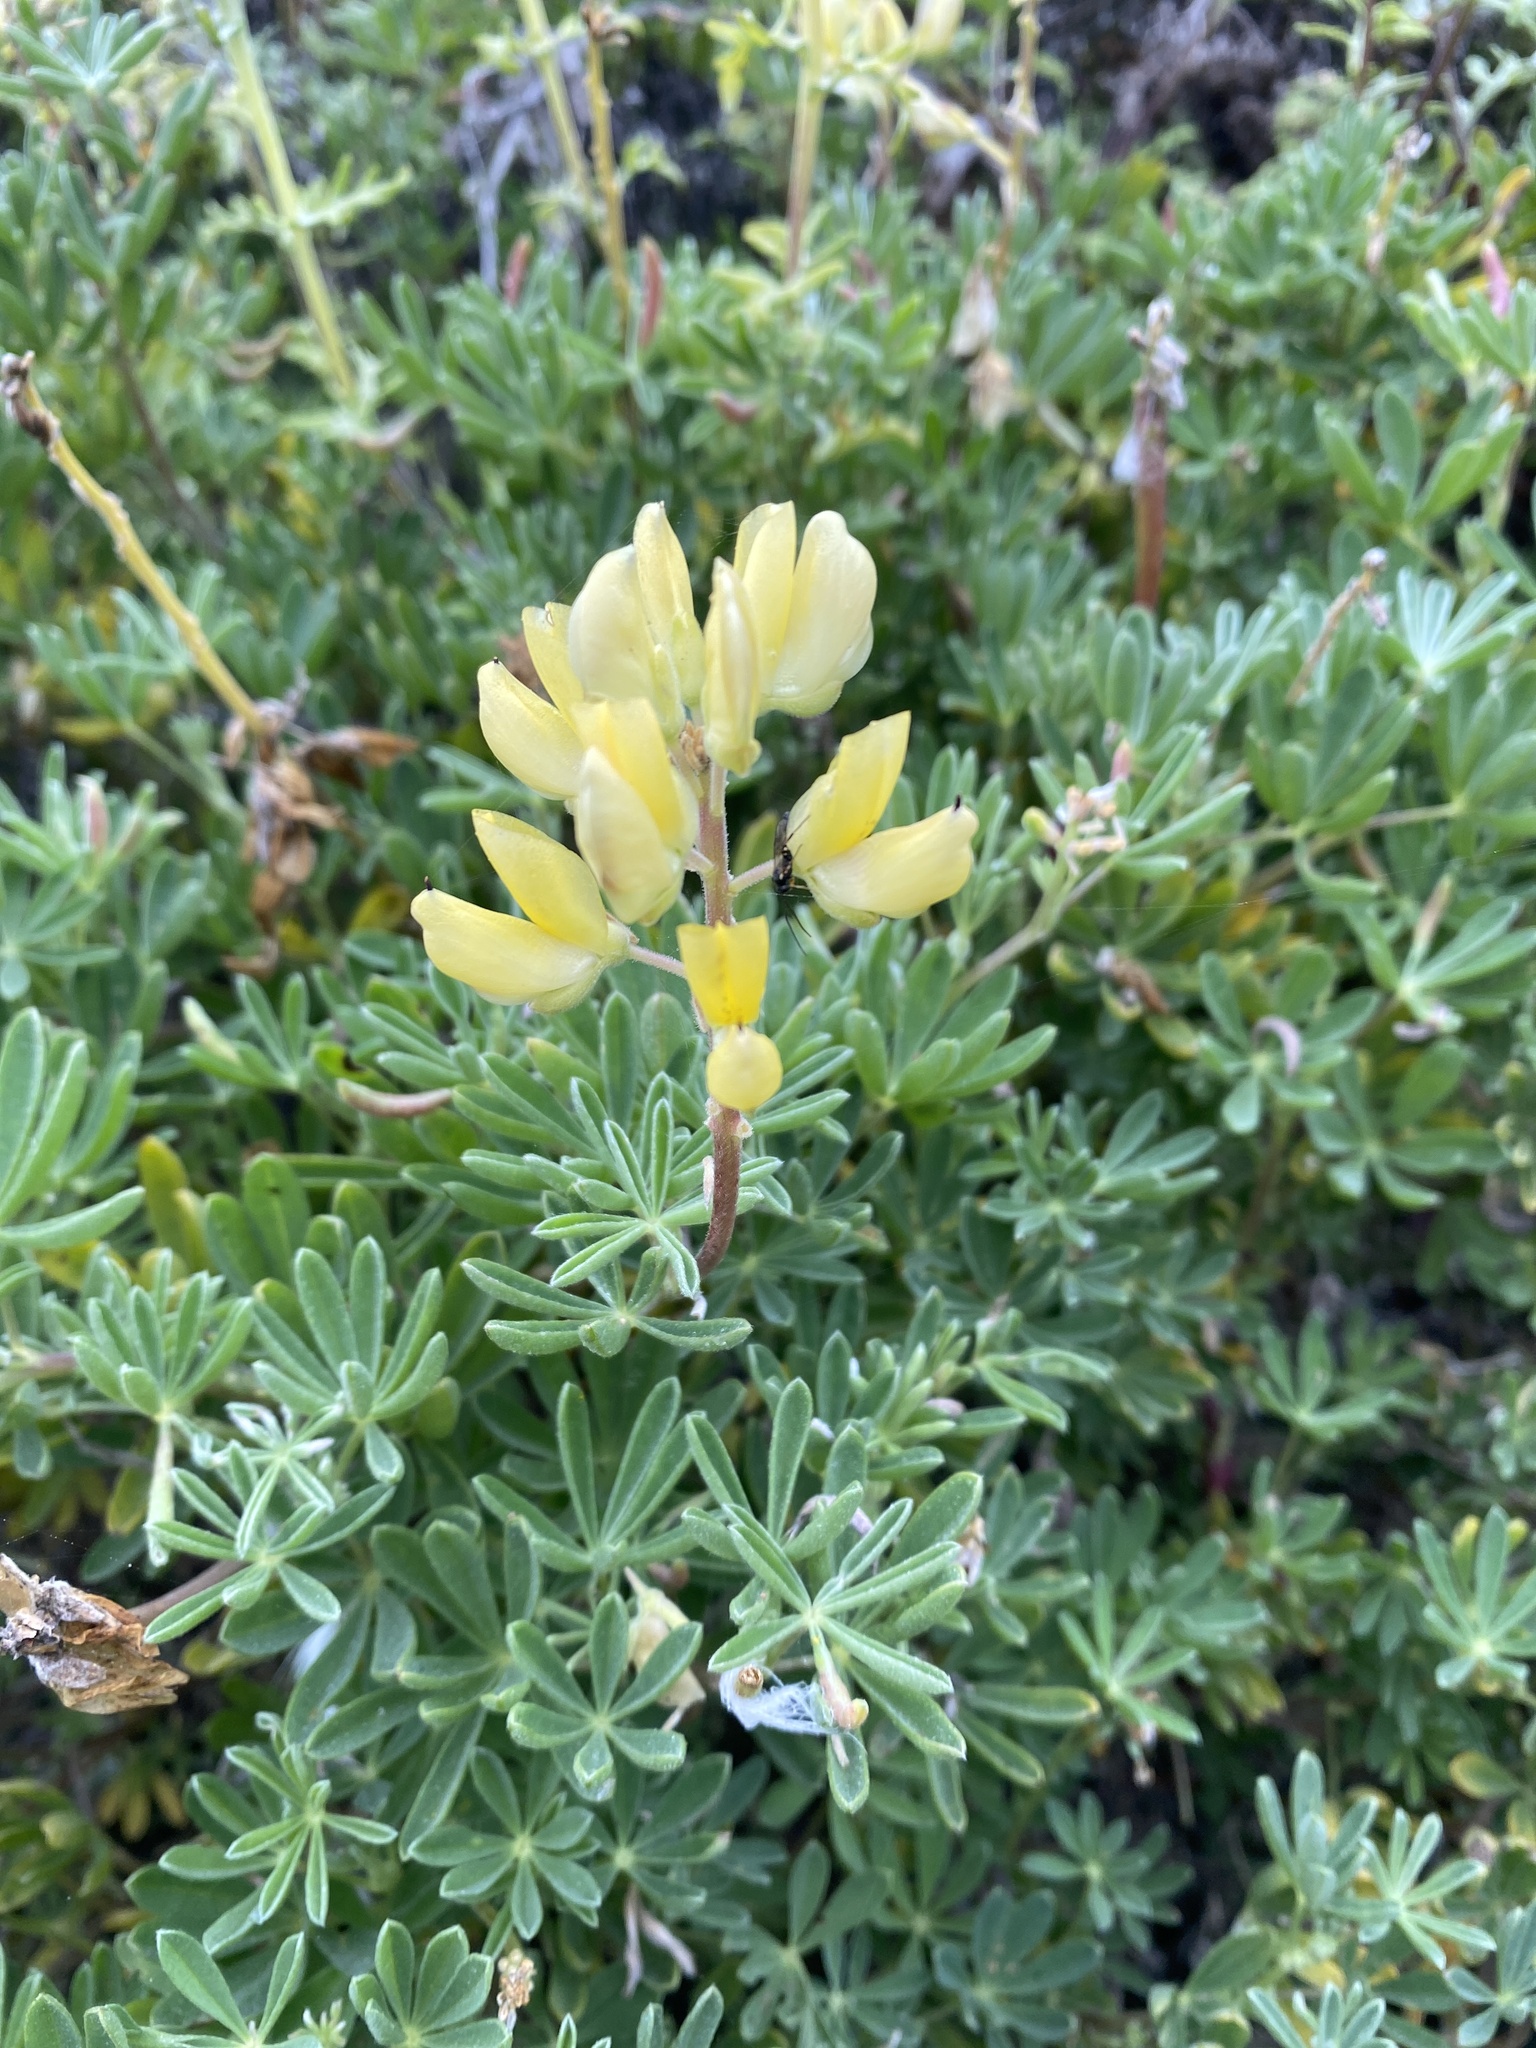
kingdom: Plantae
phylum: Tracheophyta
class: Magnoliopsida
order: Fabales
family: Fabaceae
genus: Lupinus
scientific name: Lupinus arboreus
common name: Yellow bush lupine
